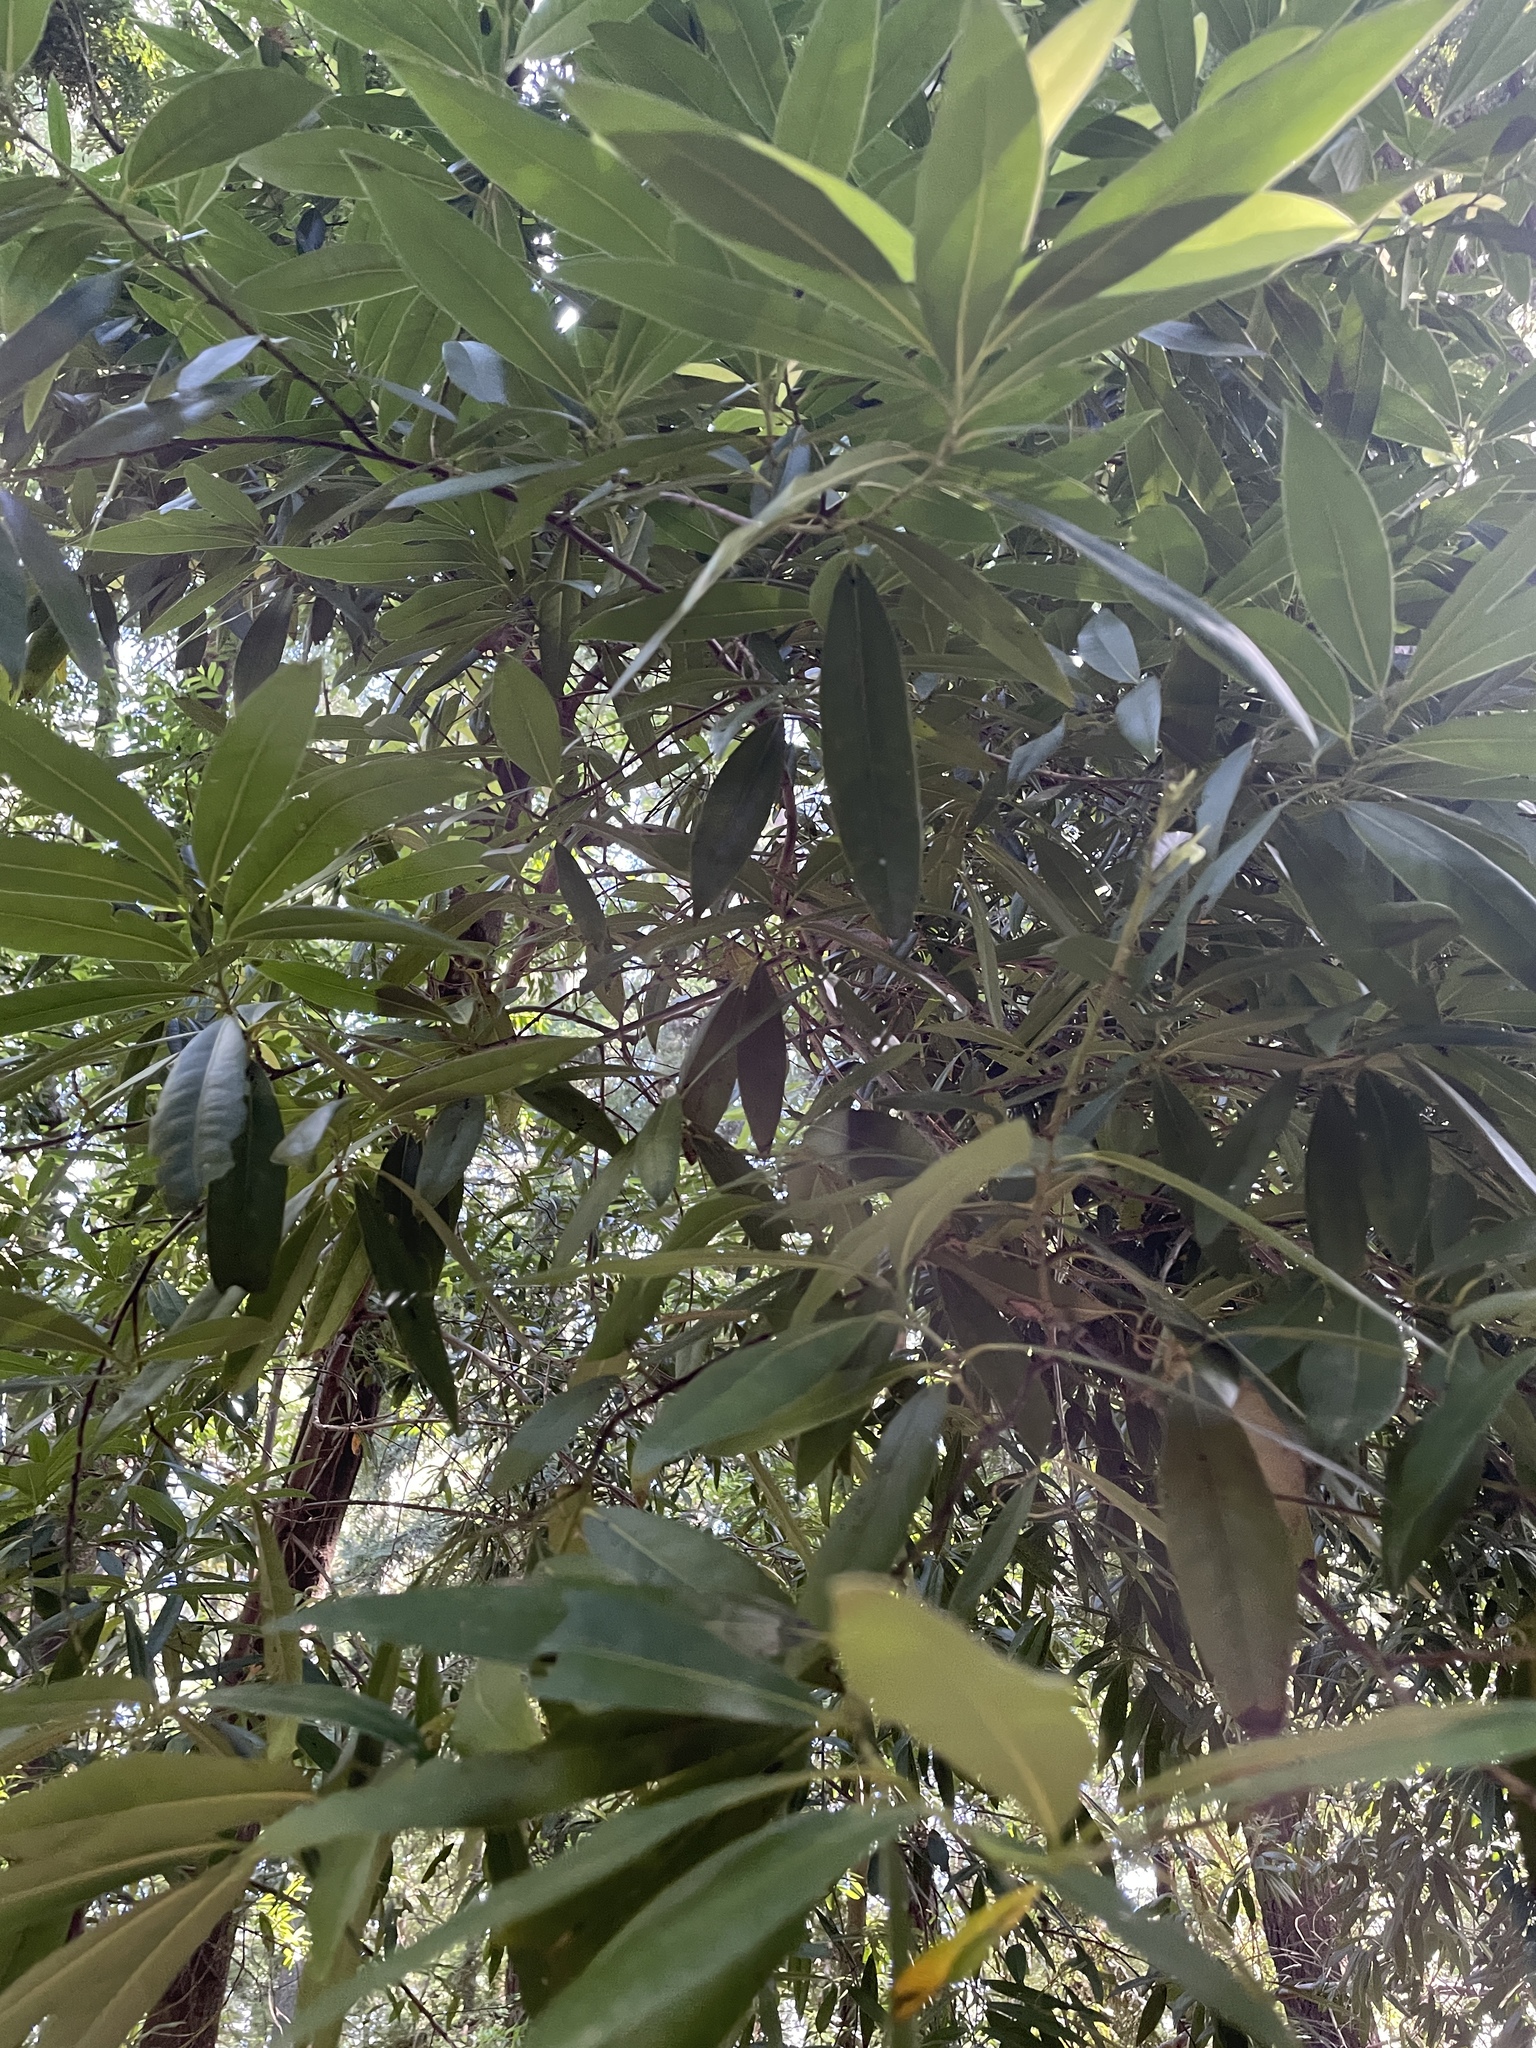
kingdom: Plantae
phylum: Tracheophyta
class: Magnoliopsida
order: Laurales
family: Lauraceae
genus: Umbellularia
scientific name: Umbellularia californica
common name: California bay
